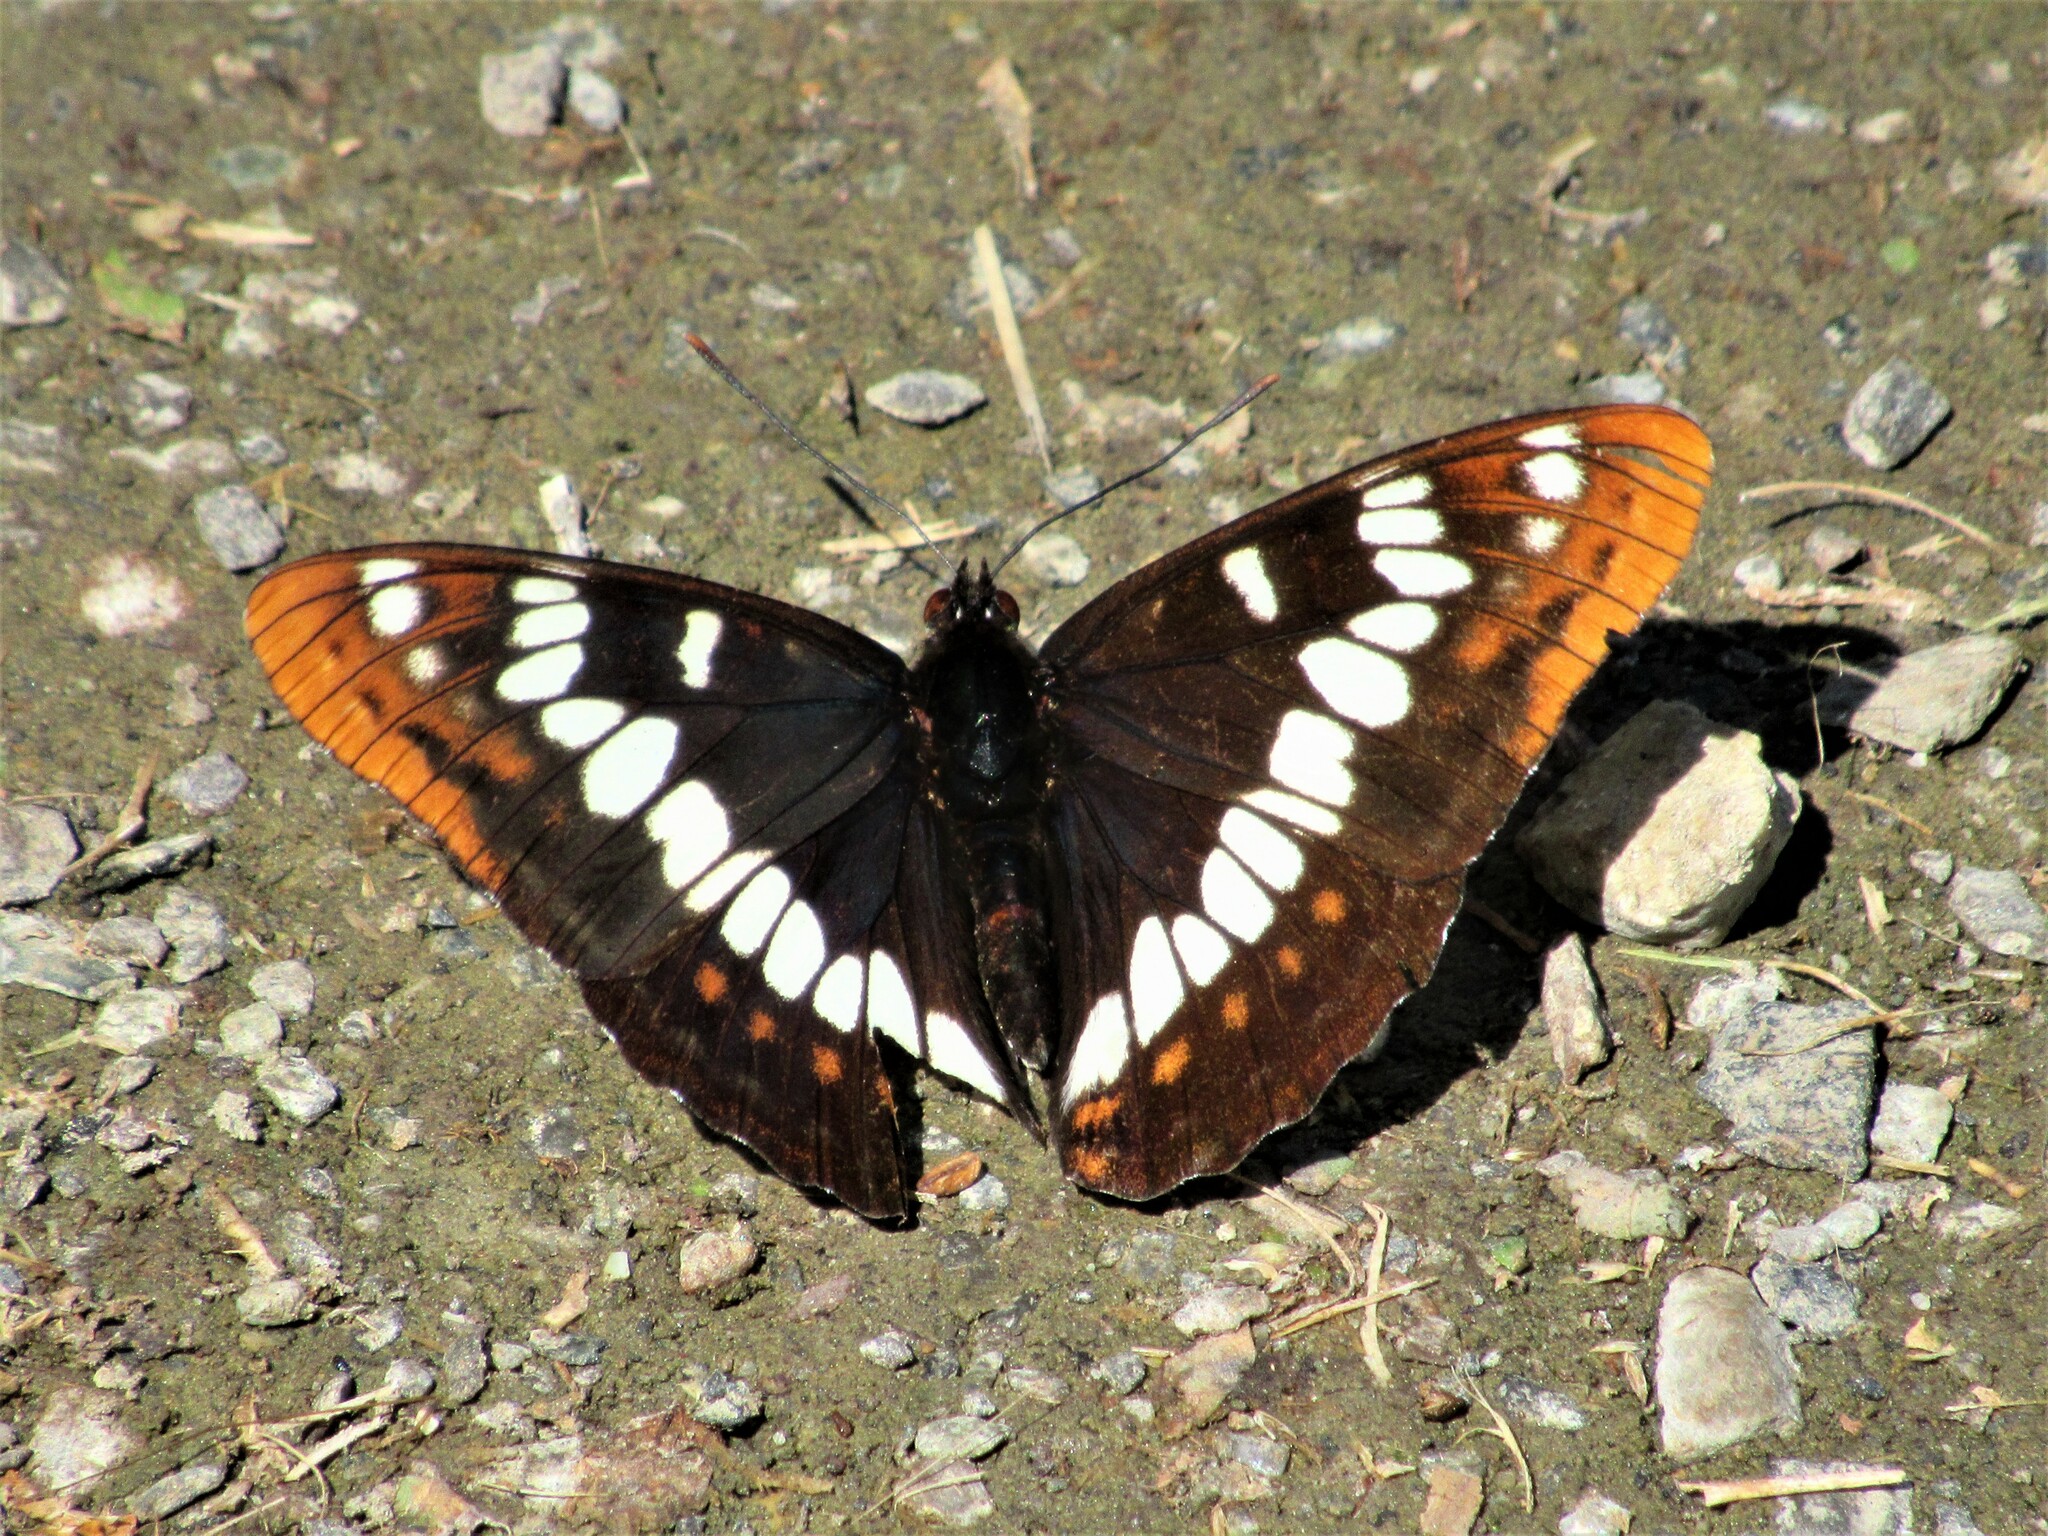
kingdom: Animalia
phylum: Arthropoda
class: Insecta
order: Lepidoptera
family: Nymphalidae
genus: Limenitis
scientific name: Limenitis lorquini
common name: Lorquin's admiral
